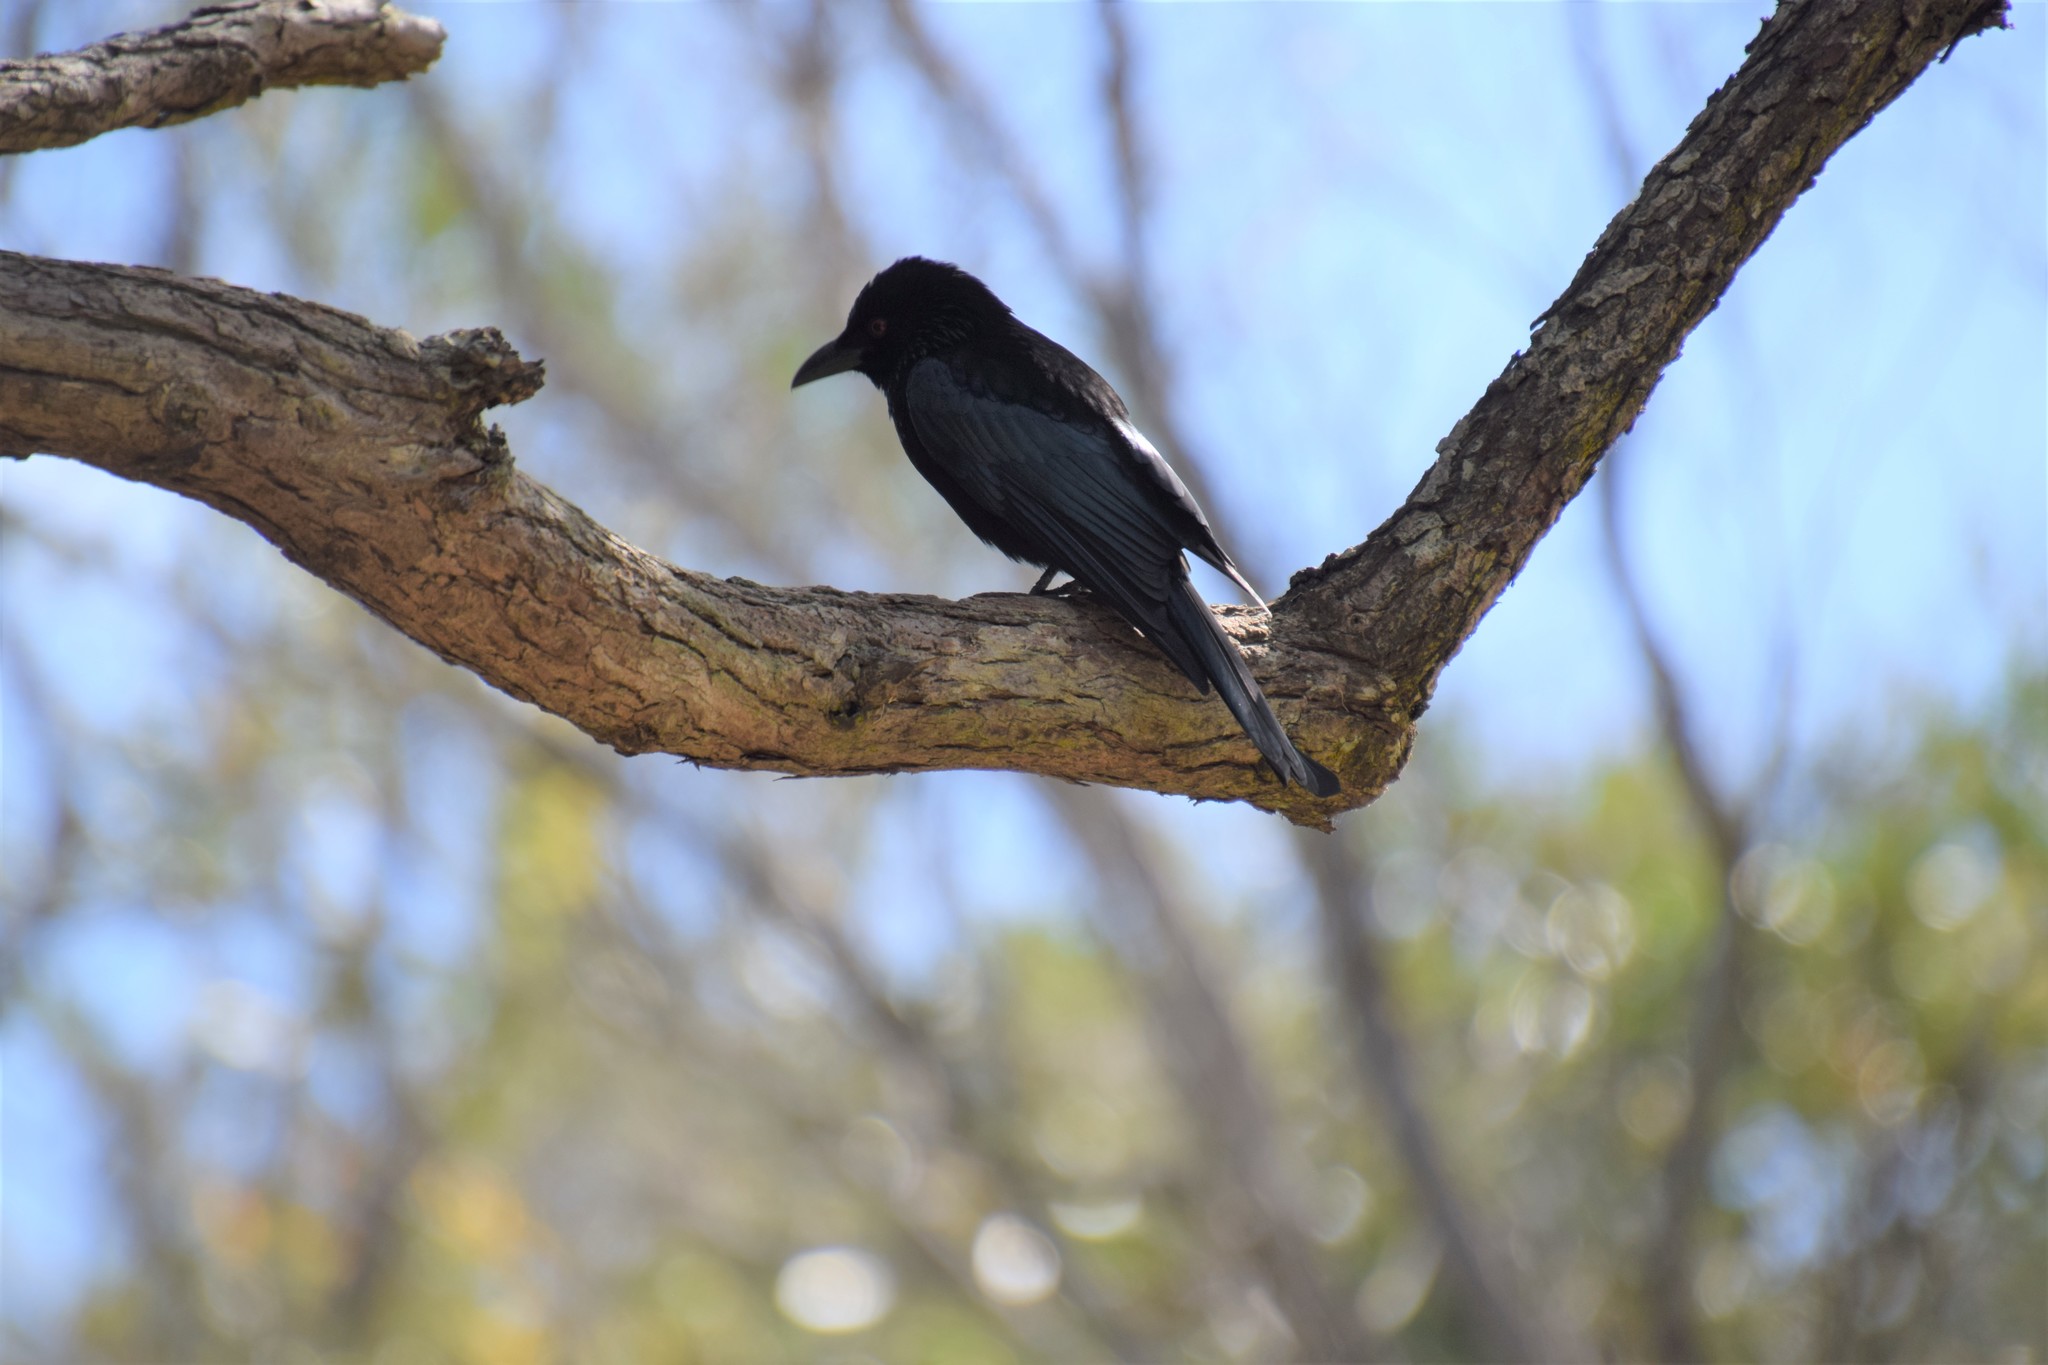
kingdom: Animalia
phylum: Chordata
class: Aves
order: Passeriformes
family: Dicruridae
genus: Dicrurus
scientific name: Dicrurus bracteatus
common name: Spangled drongo
